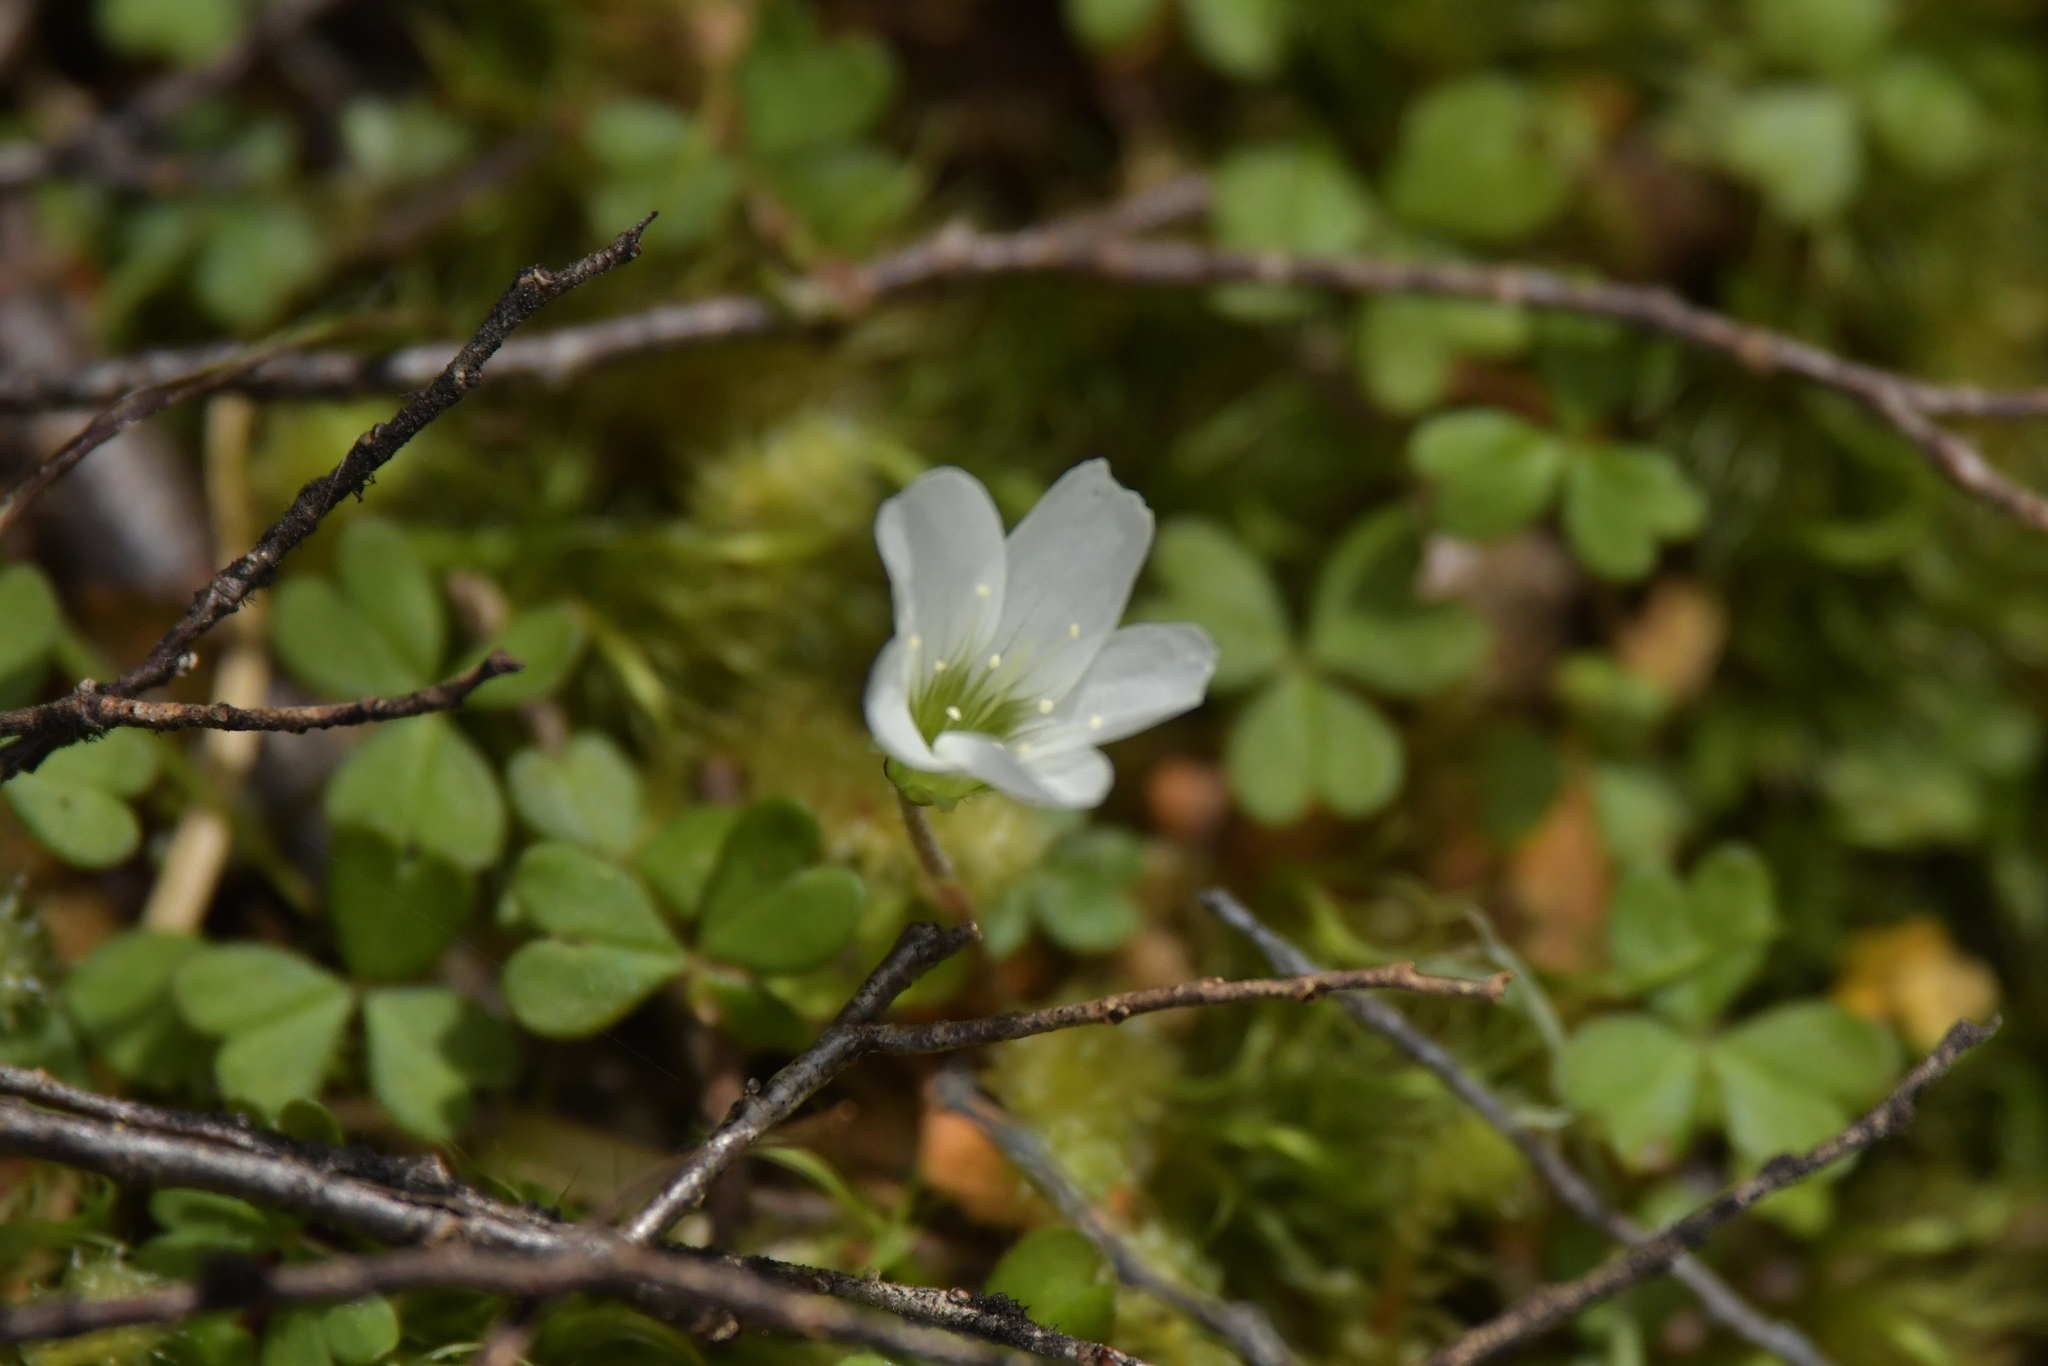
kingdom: Plantae
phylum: Tracheophyta
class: Magnoliopsida
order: Oxalidales
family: Oxalidaceae
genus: Oxalis
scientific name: Oxalis magellanica
